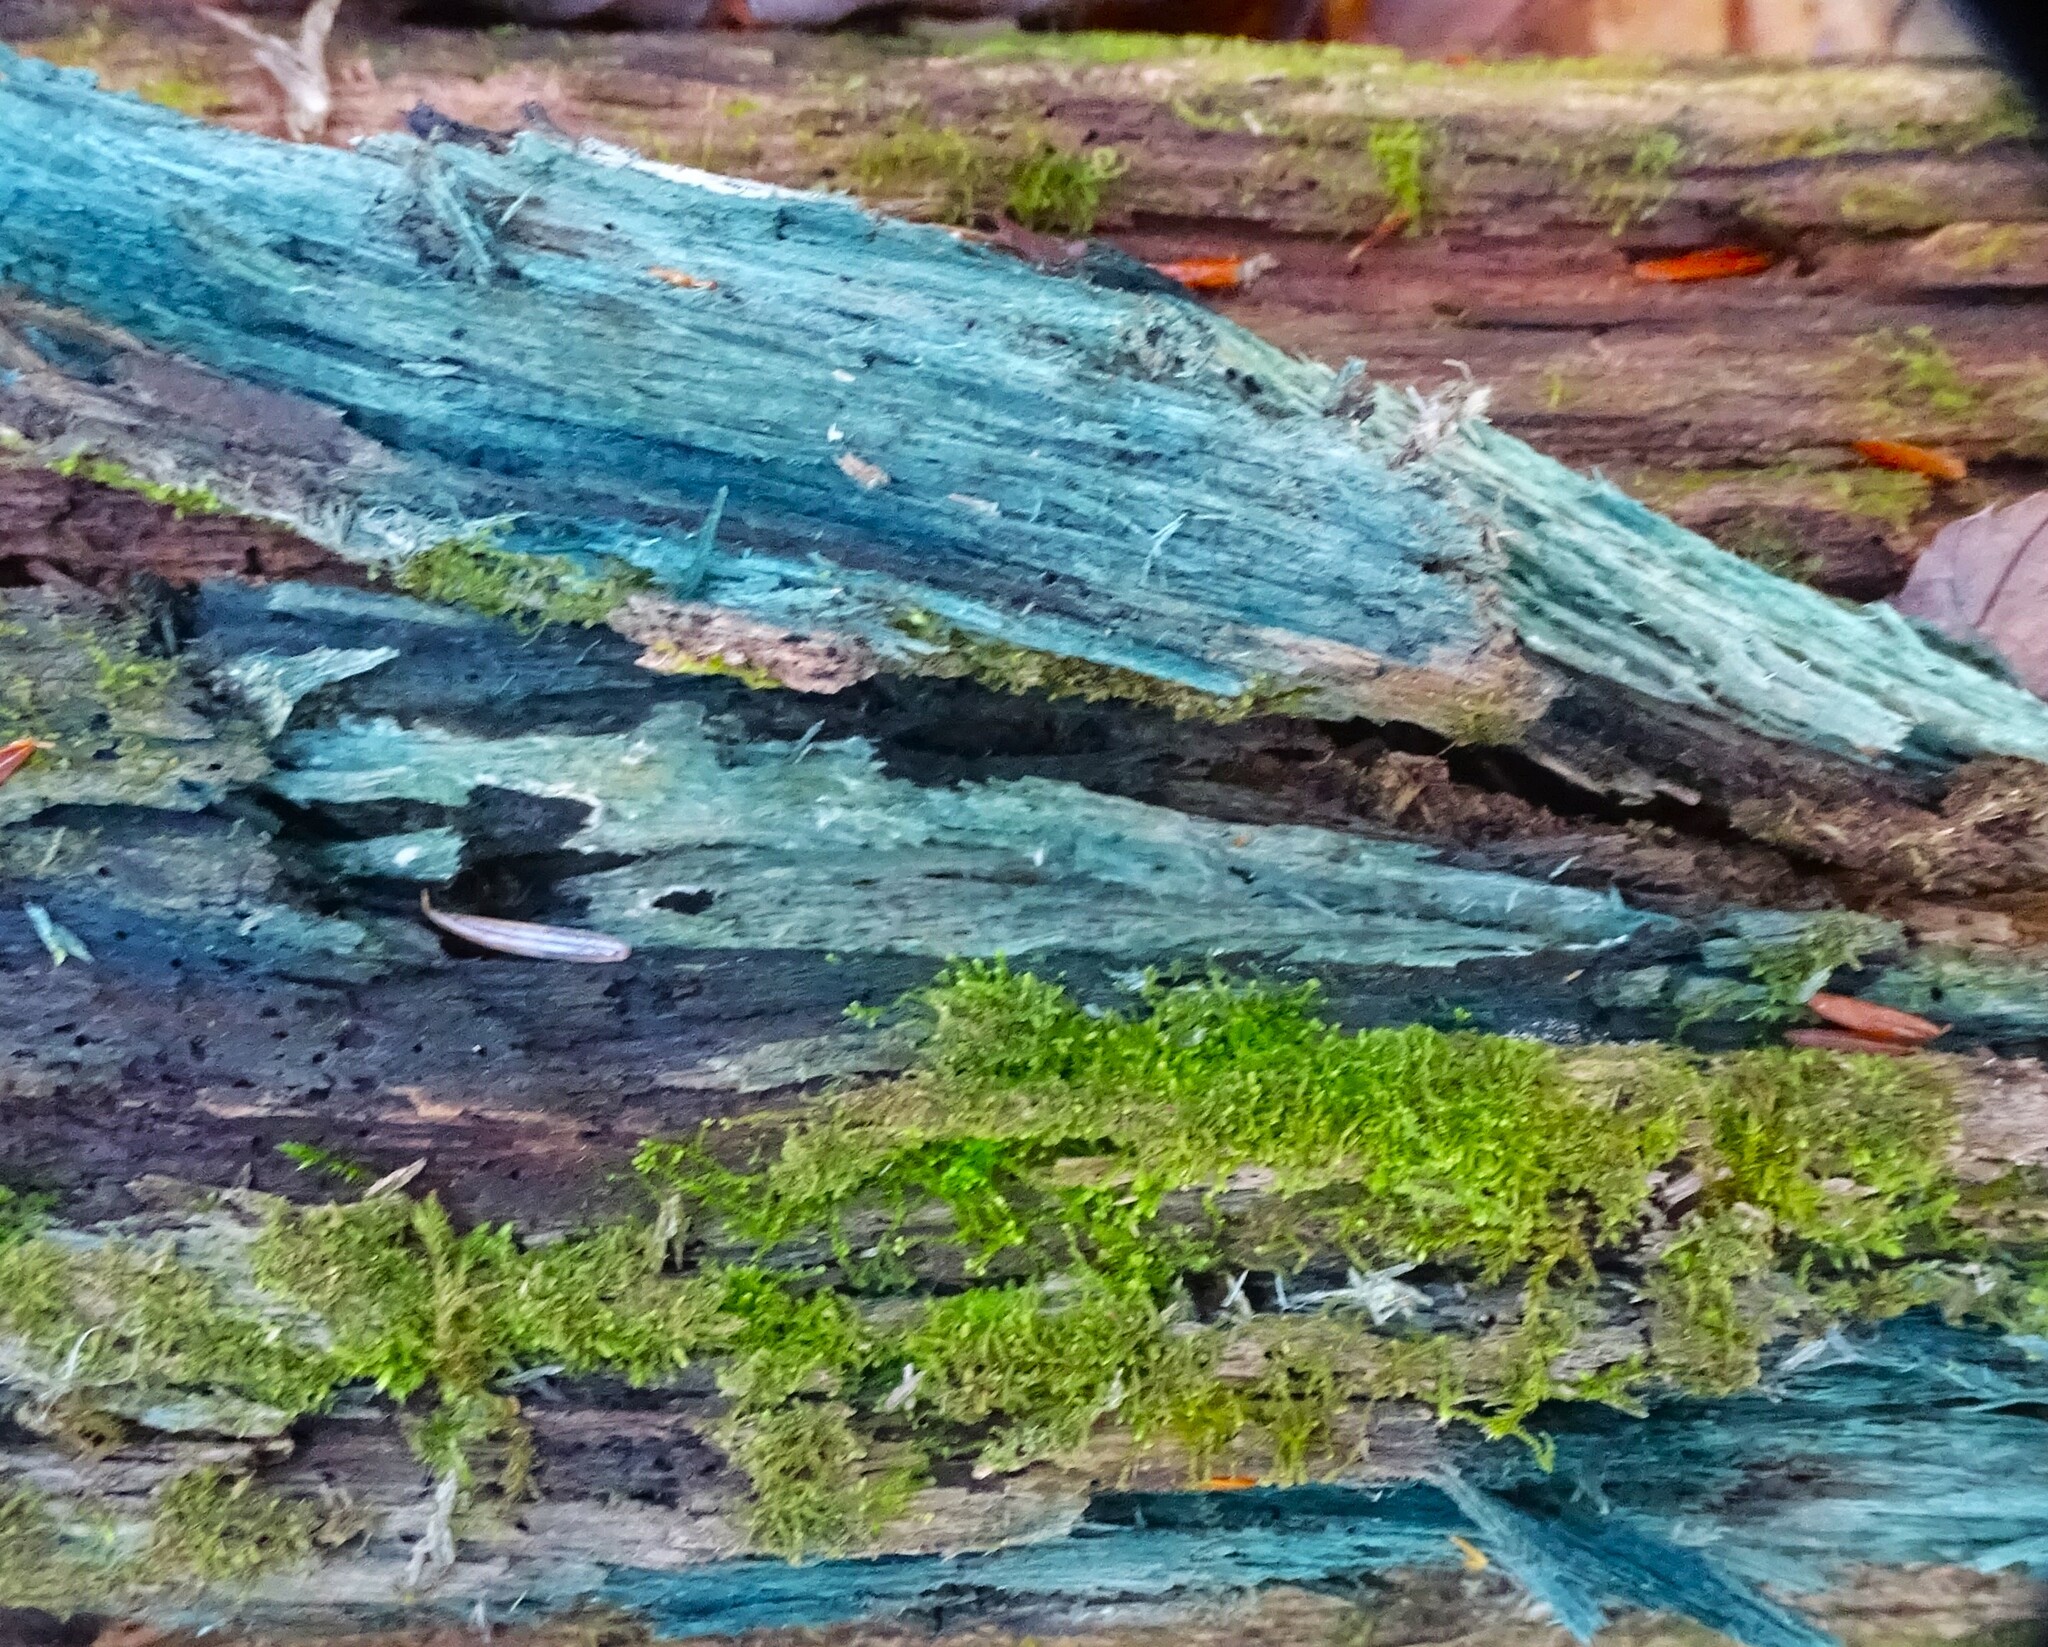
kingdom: Fungi
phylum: Ascomycota
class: Leotiomycetes
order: Helotiales
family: Chlorociboriaceae
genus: Chlorociboria
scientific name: Chlorociboria aeruginascens
